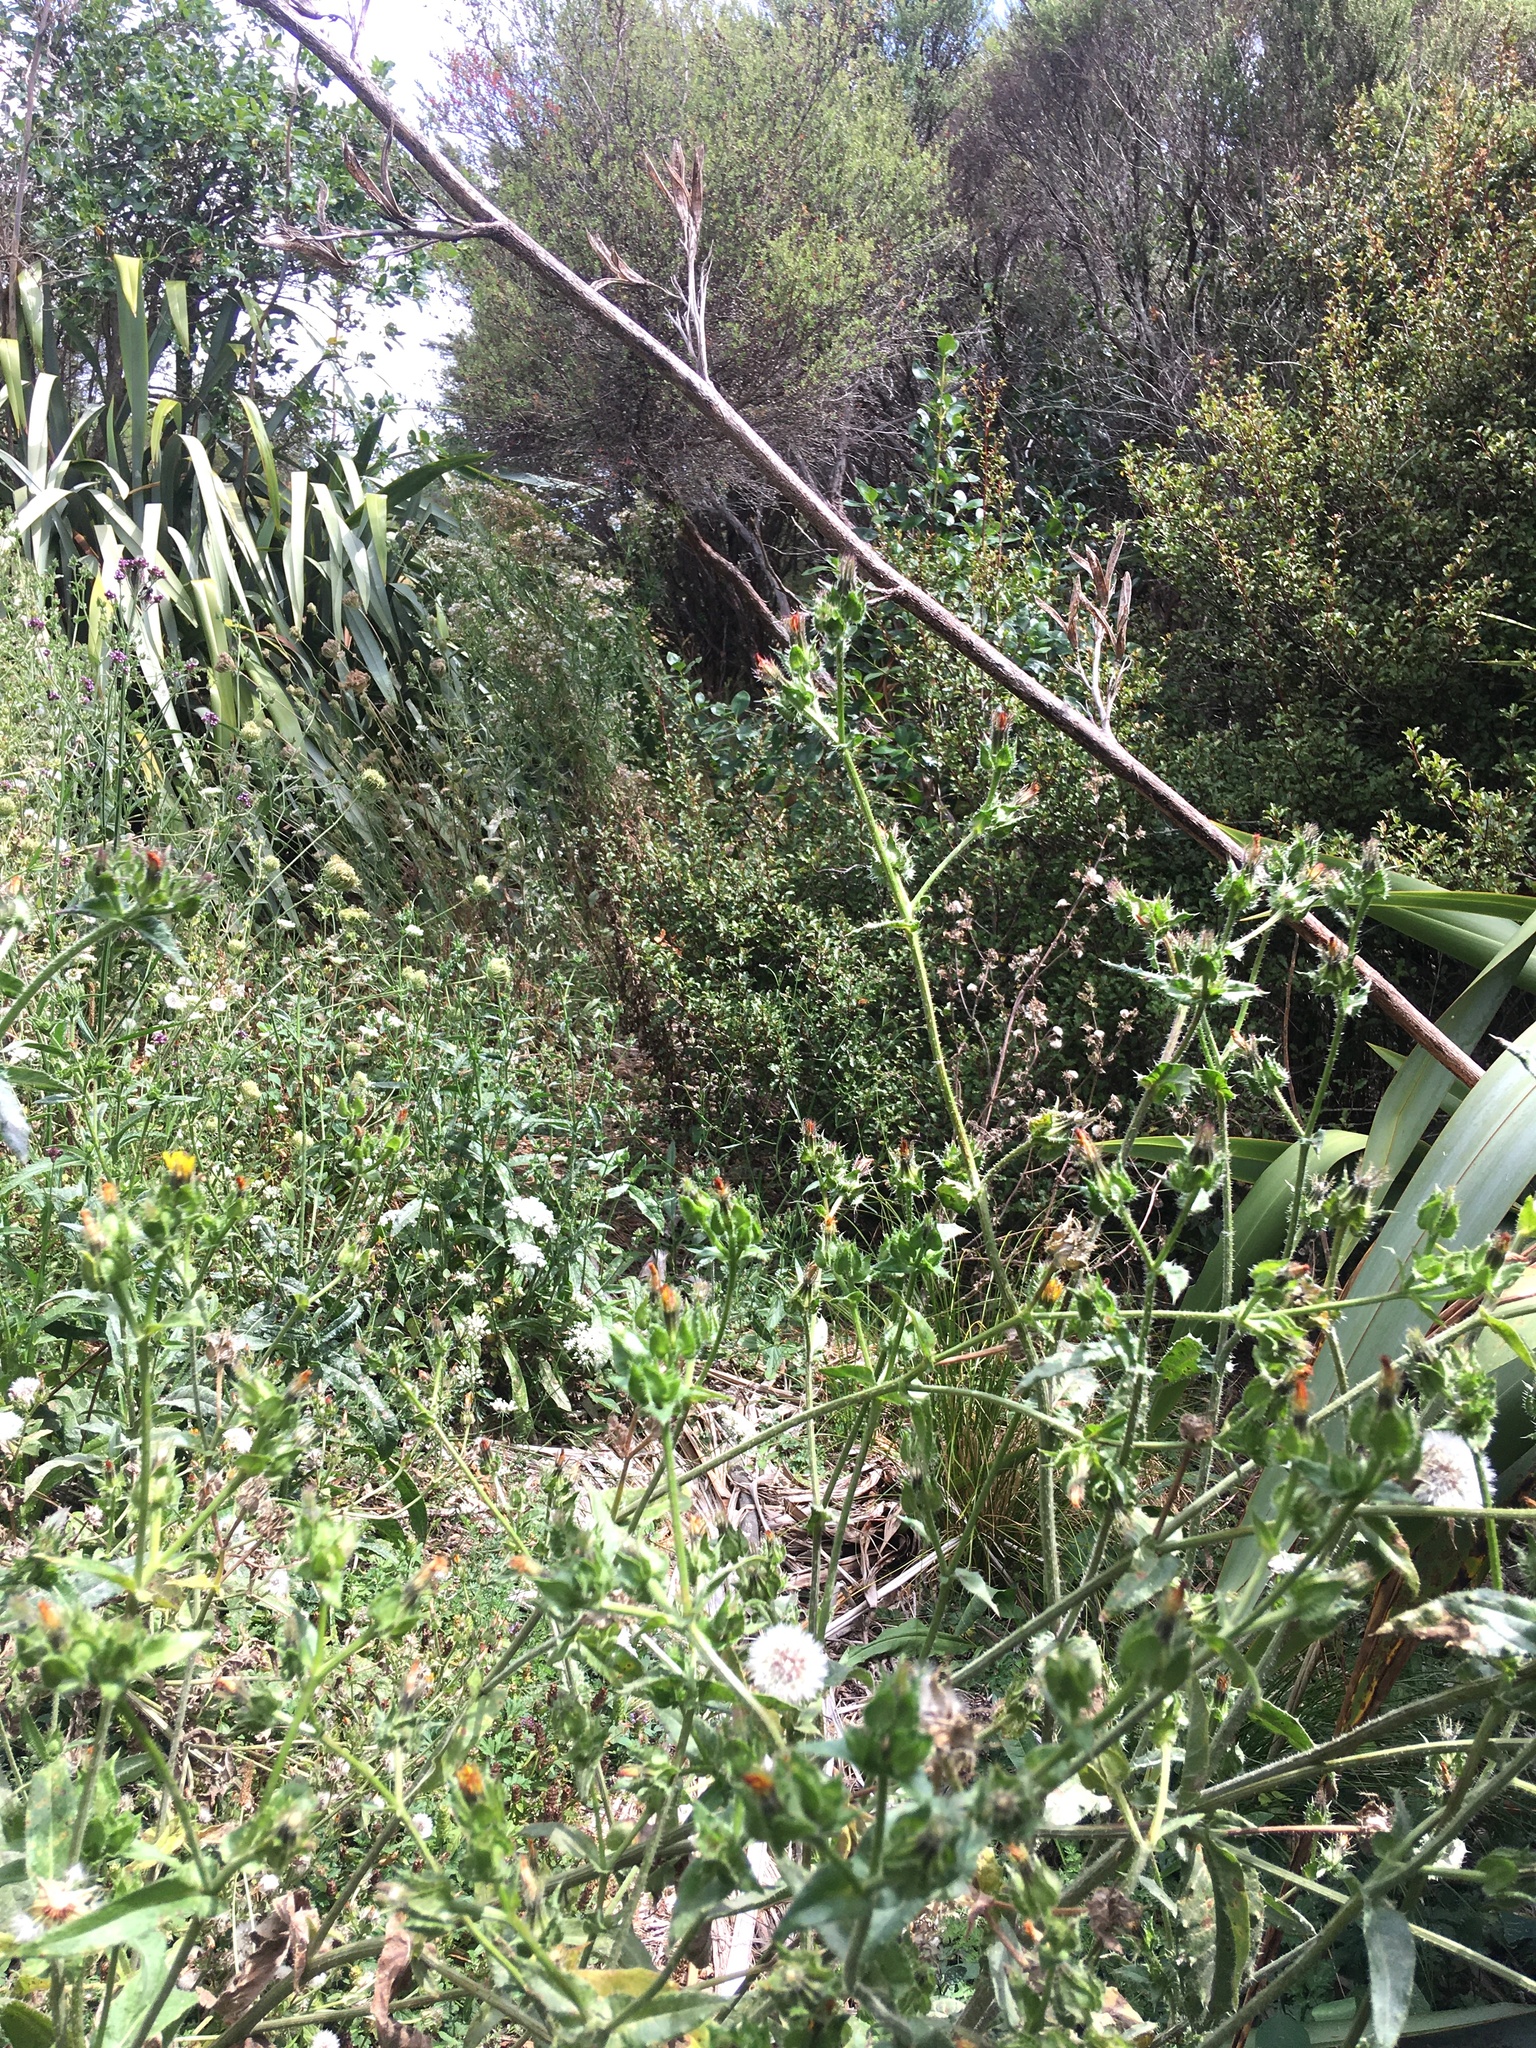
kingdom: Plantae
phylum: Tracheophyta
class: Magnoliopsida
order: Asterales
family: Asteraceae
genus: Helminthotheca
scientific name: Helminthotheca echioides
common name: Ox-tongue
